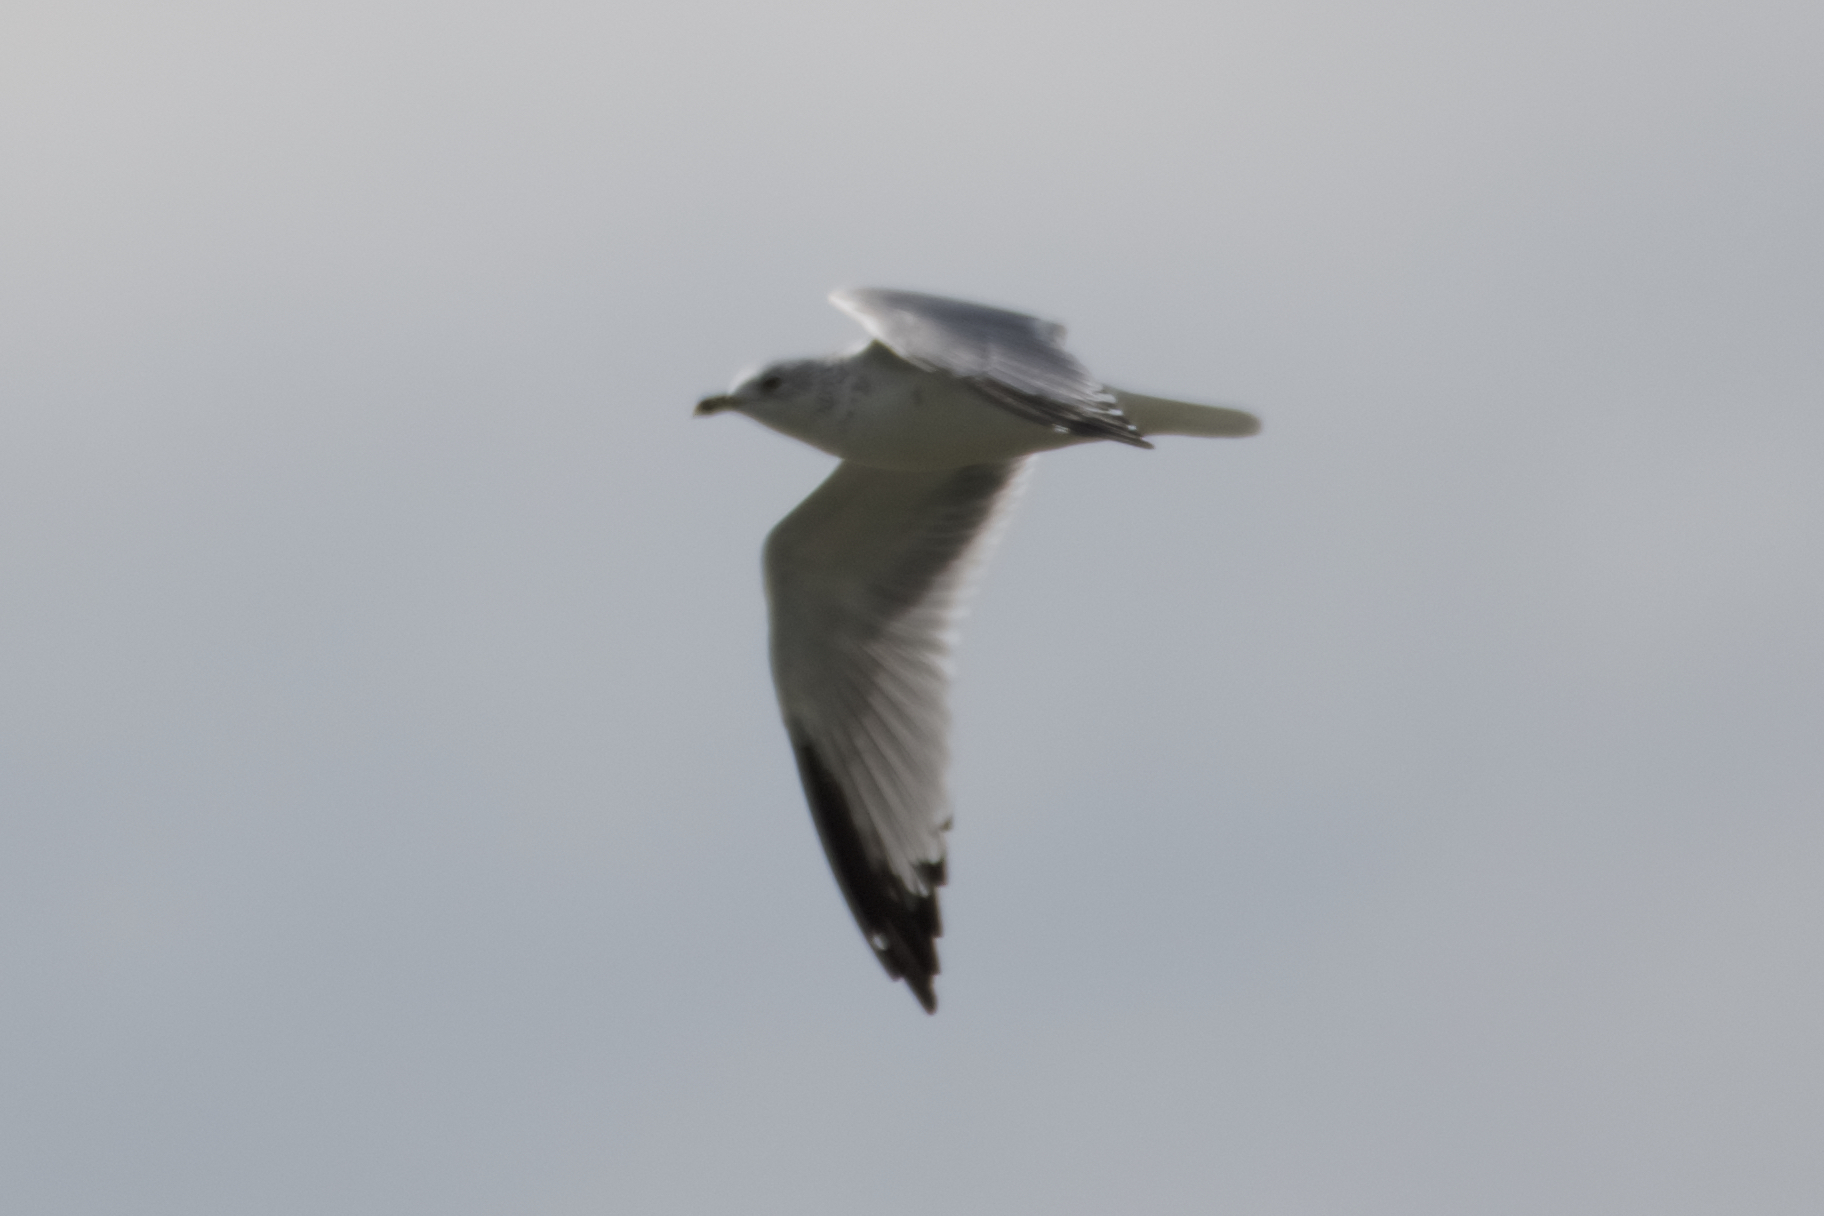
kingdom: Animalia
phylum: Chordata
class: Aves
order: Charadriiformes
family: Laridae
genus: Larus
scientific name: Larus delawarensis
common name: Ring-billed gull
